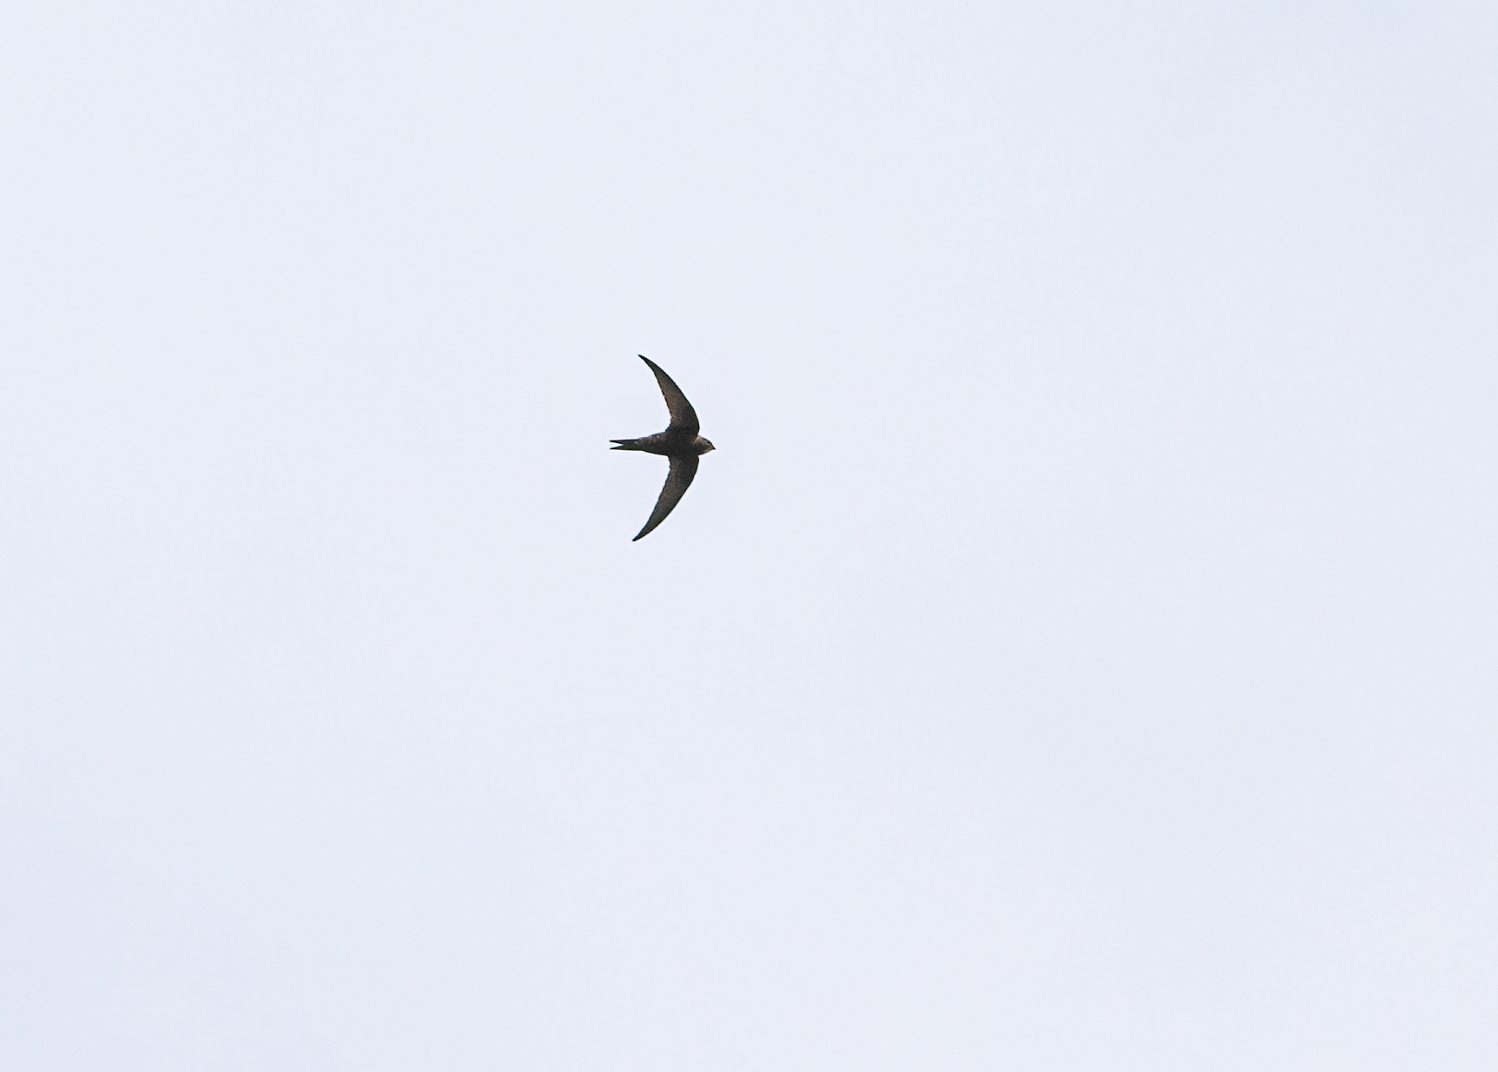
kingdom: Animalia
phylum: Chordata
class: Aves
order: Apodiformes
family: Apodidae
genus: Apus
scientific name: Apus apus
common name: Common swift
